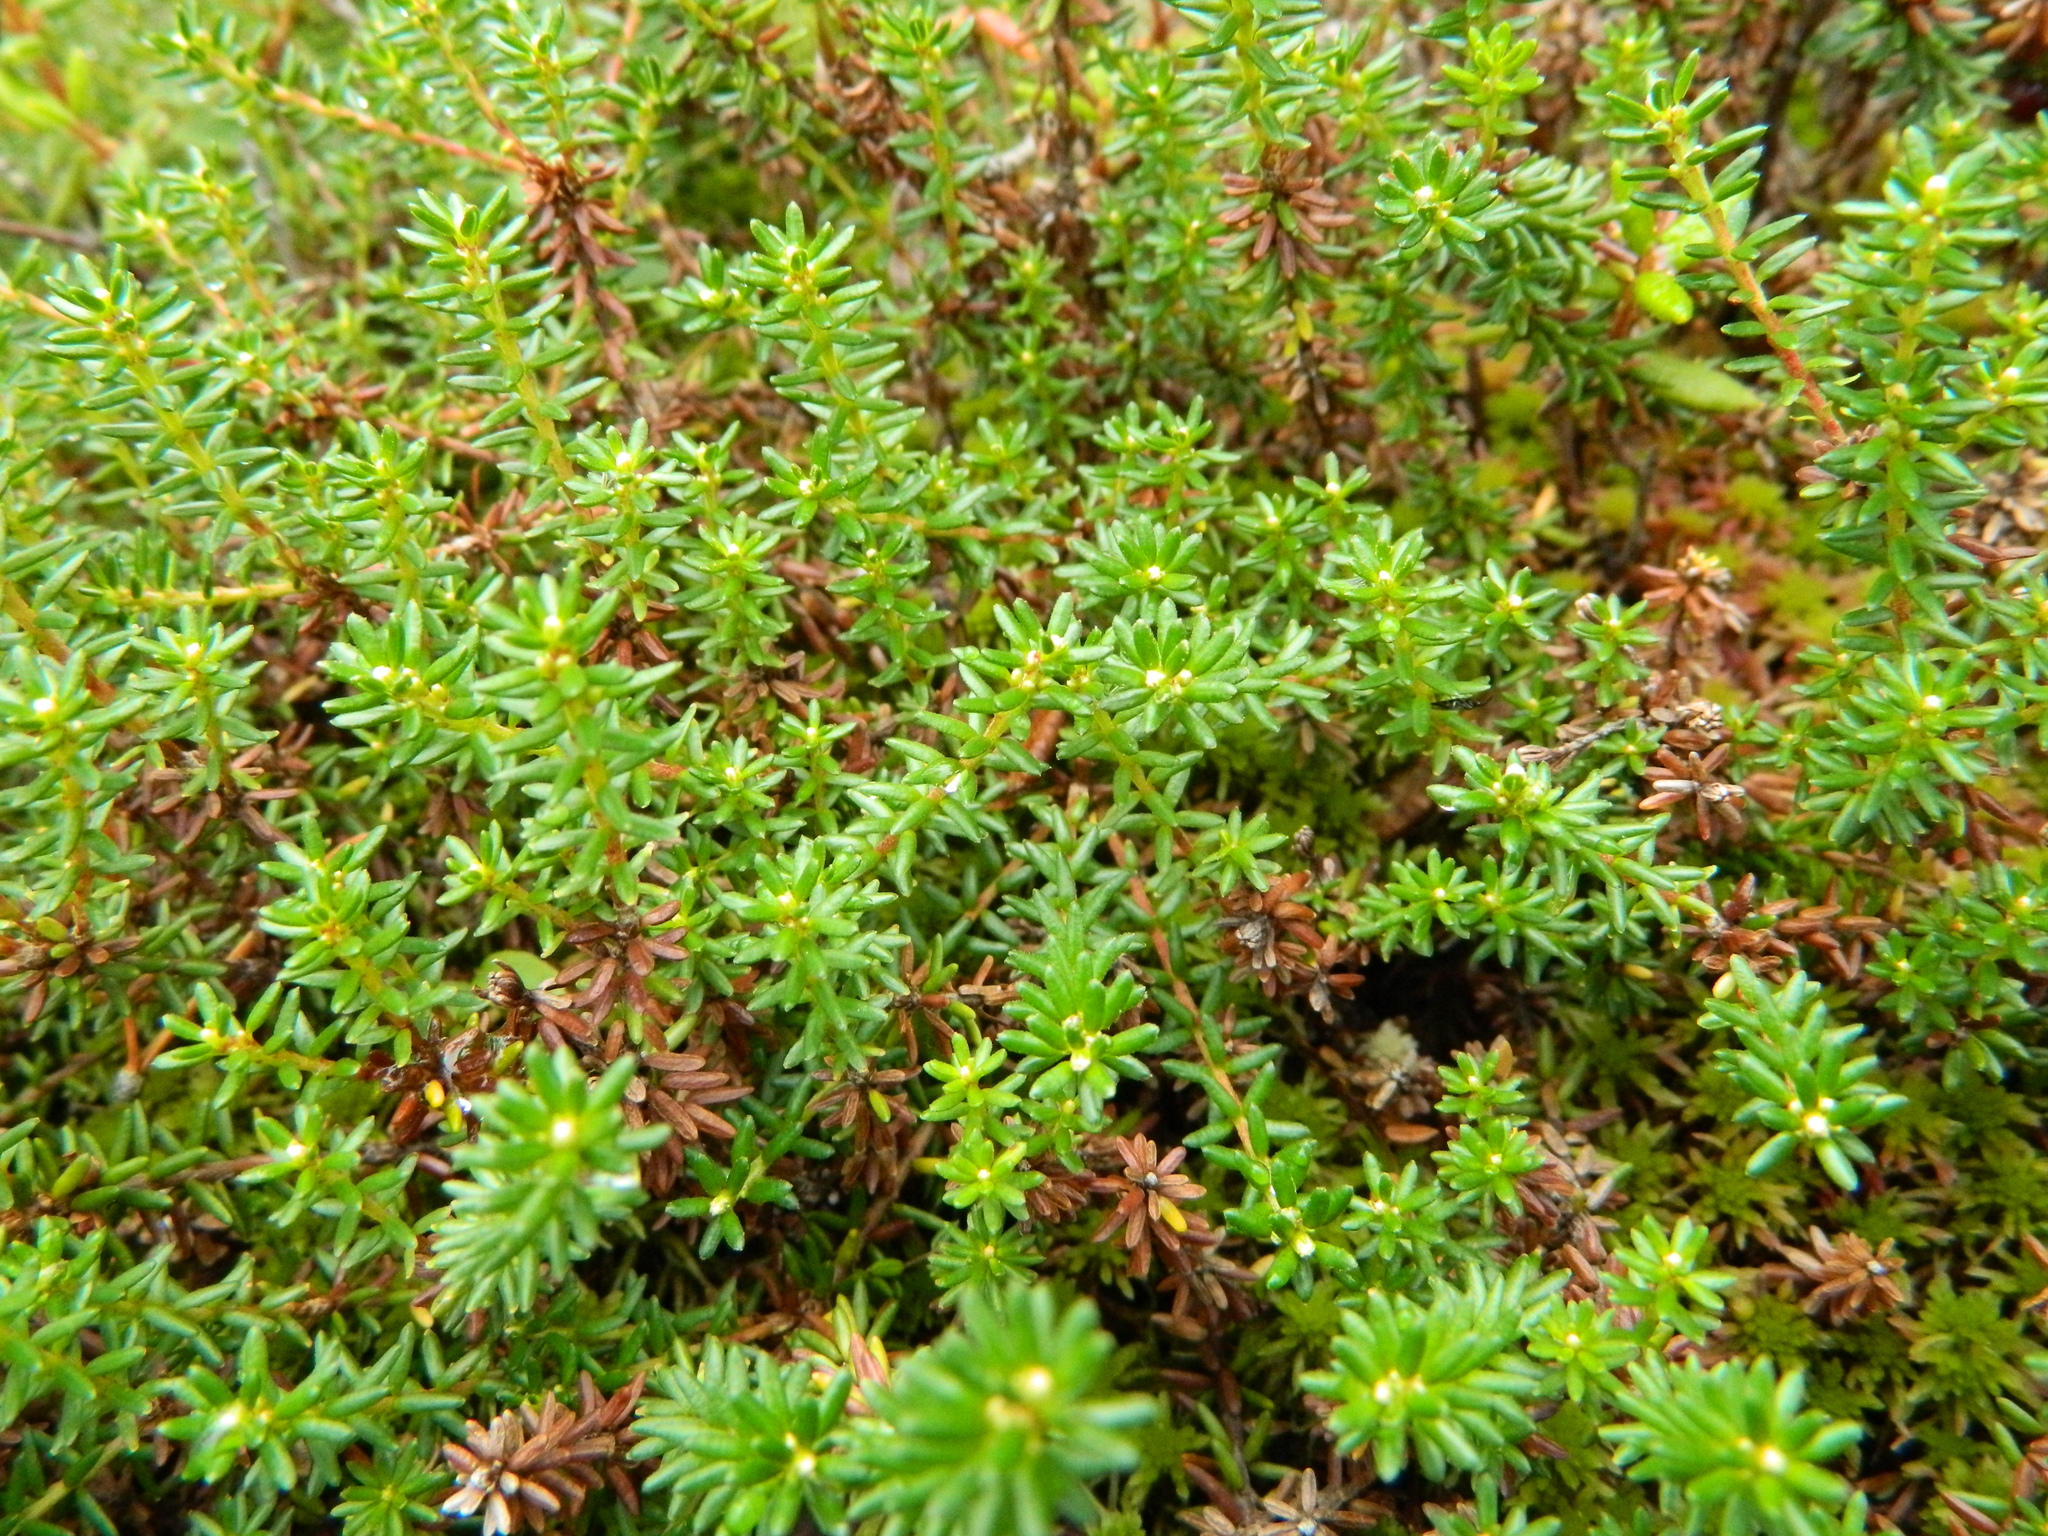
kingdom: Plantae
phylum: Tracheophyta
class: Magnoliopsida
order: Ericales
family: Ericaceae
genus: Empetrum
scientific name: Empetrum nigrum
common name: Black crowberry
